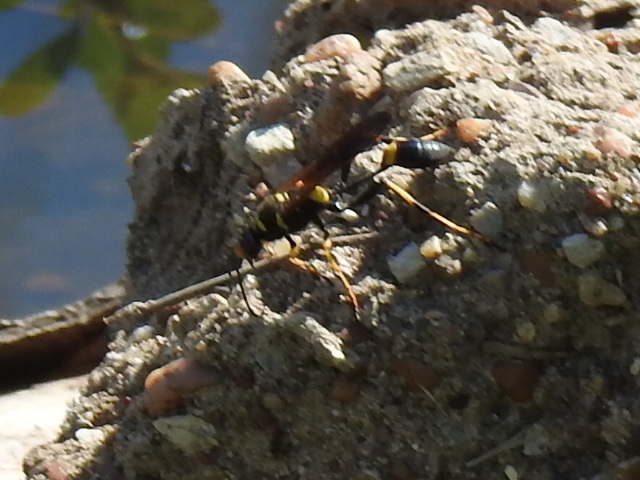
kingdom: Animalia
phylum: Arthropoda
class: Insecta
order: Hymenoptera
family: Sphecidae
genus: Sceliphron
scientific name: Sceliphron caementarium
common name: Mud dauber
